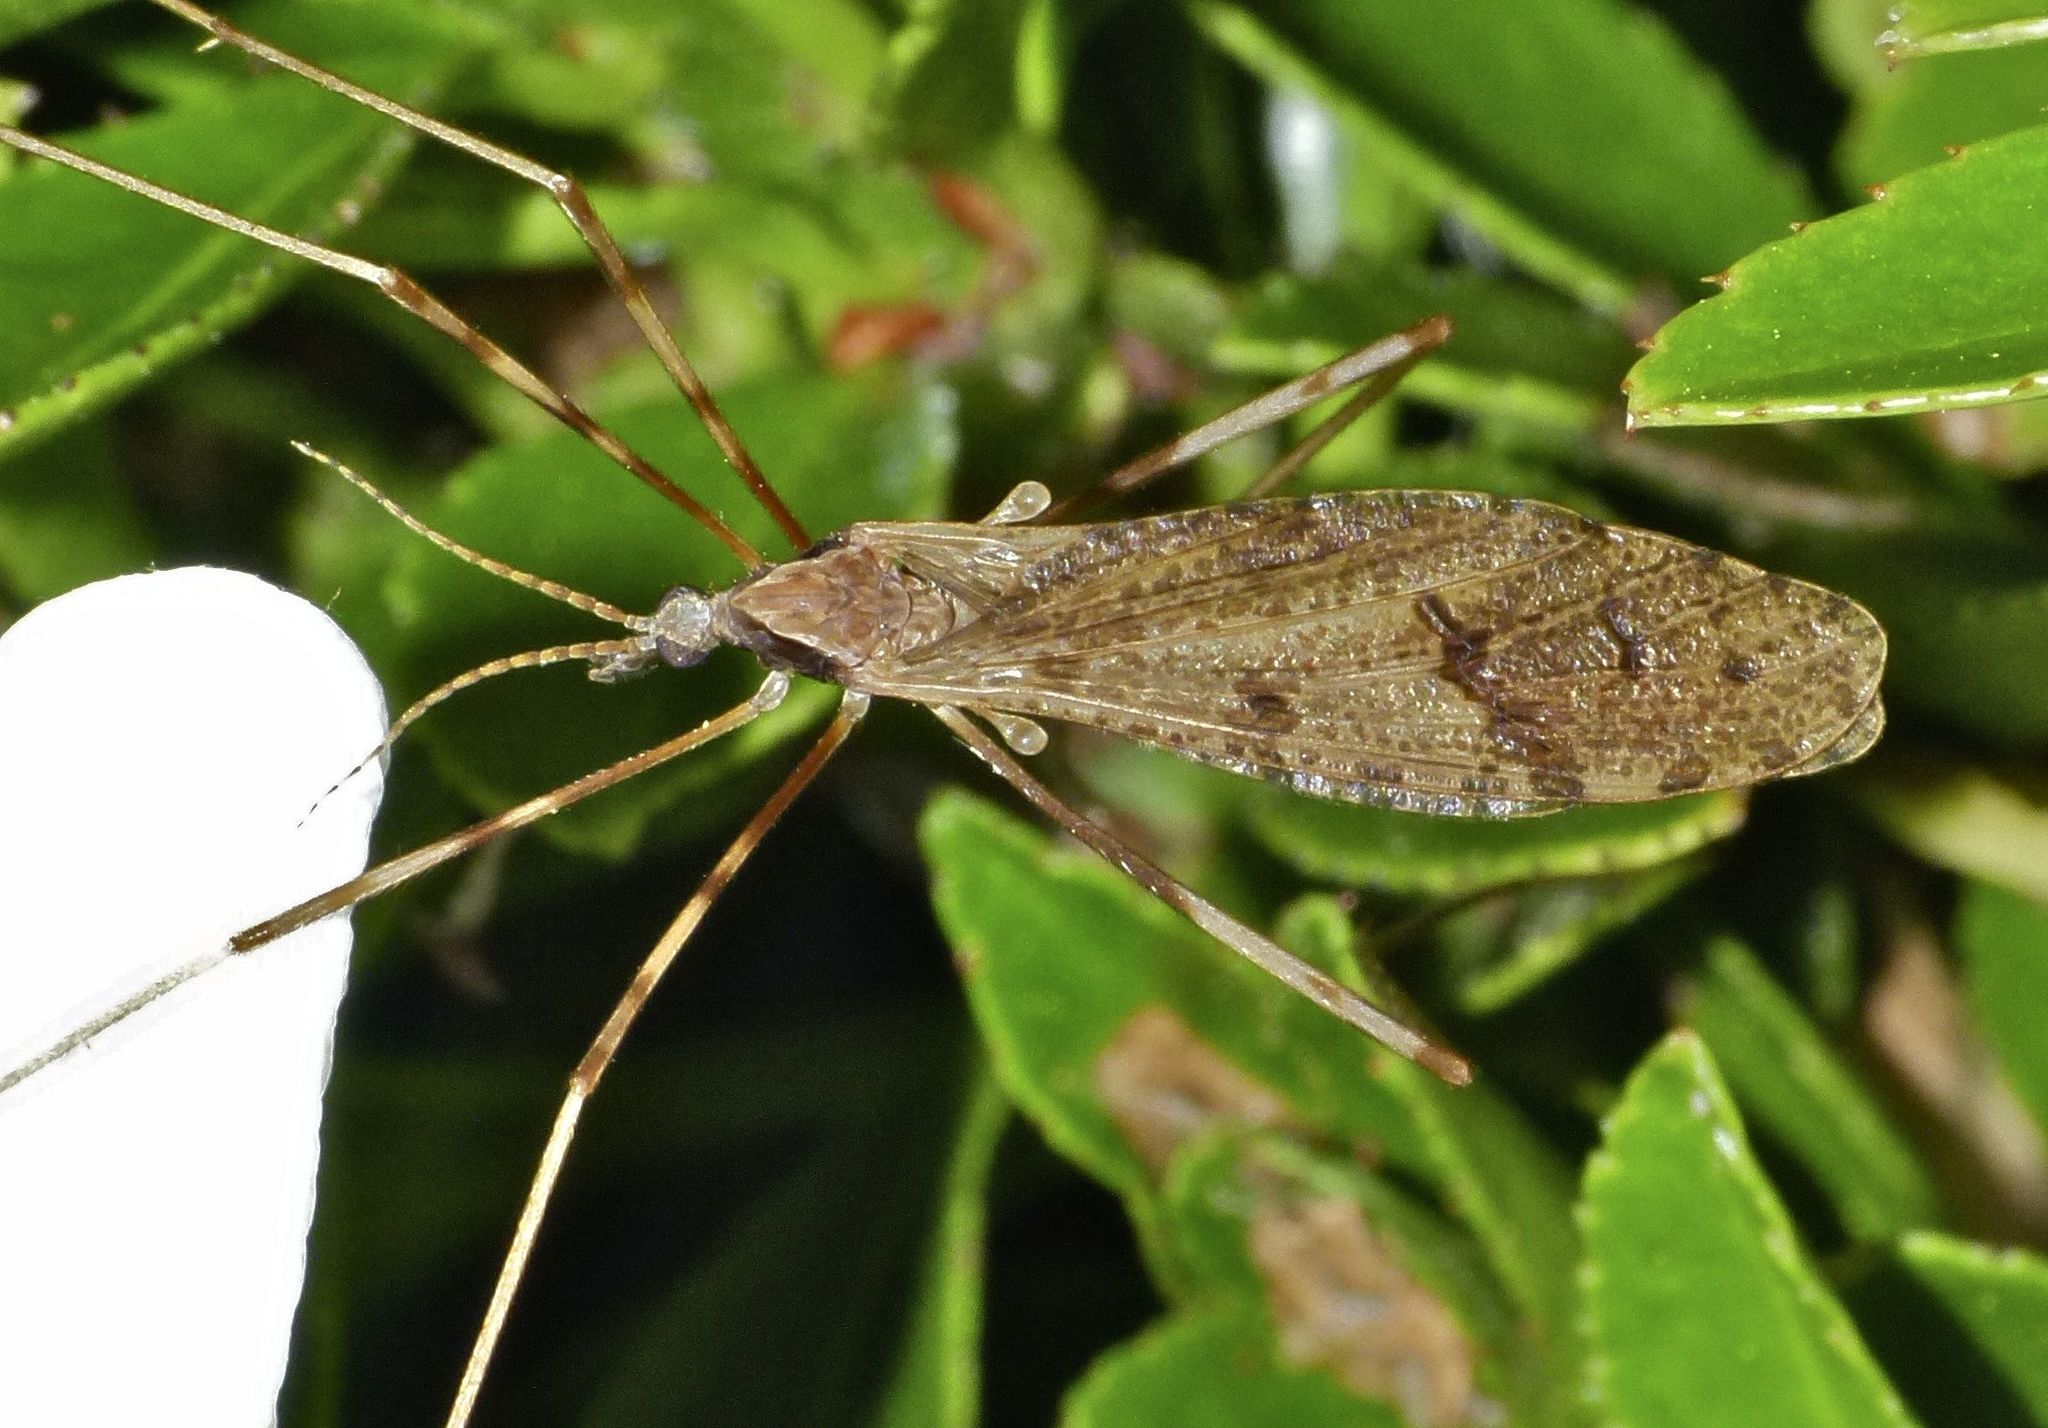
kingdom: Animalia
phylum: Arthropoda
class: Insecta
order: Diptera
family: Limoniidae
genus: Rhamphophila
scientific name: Rhamphophila lyrifera
